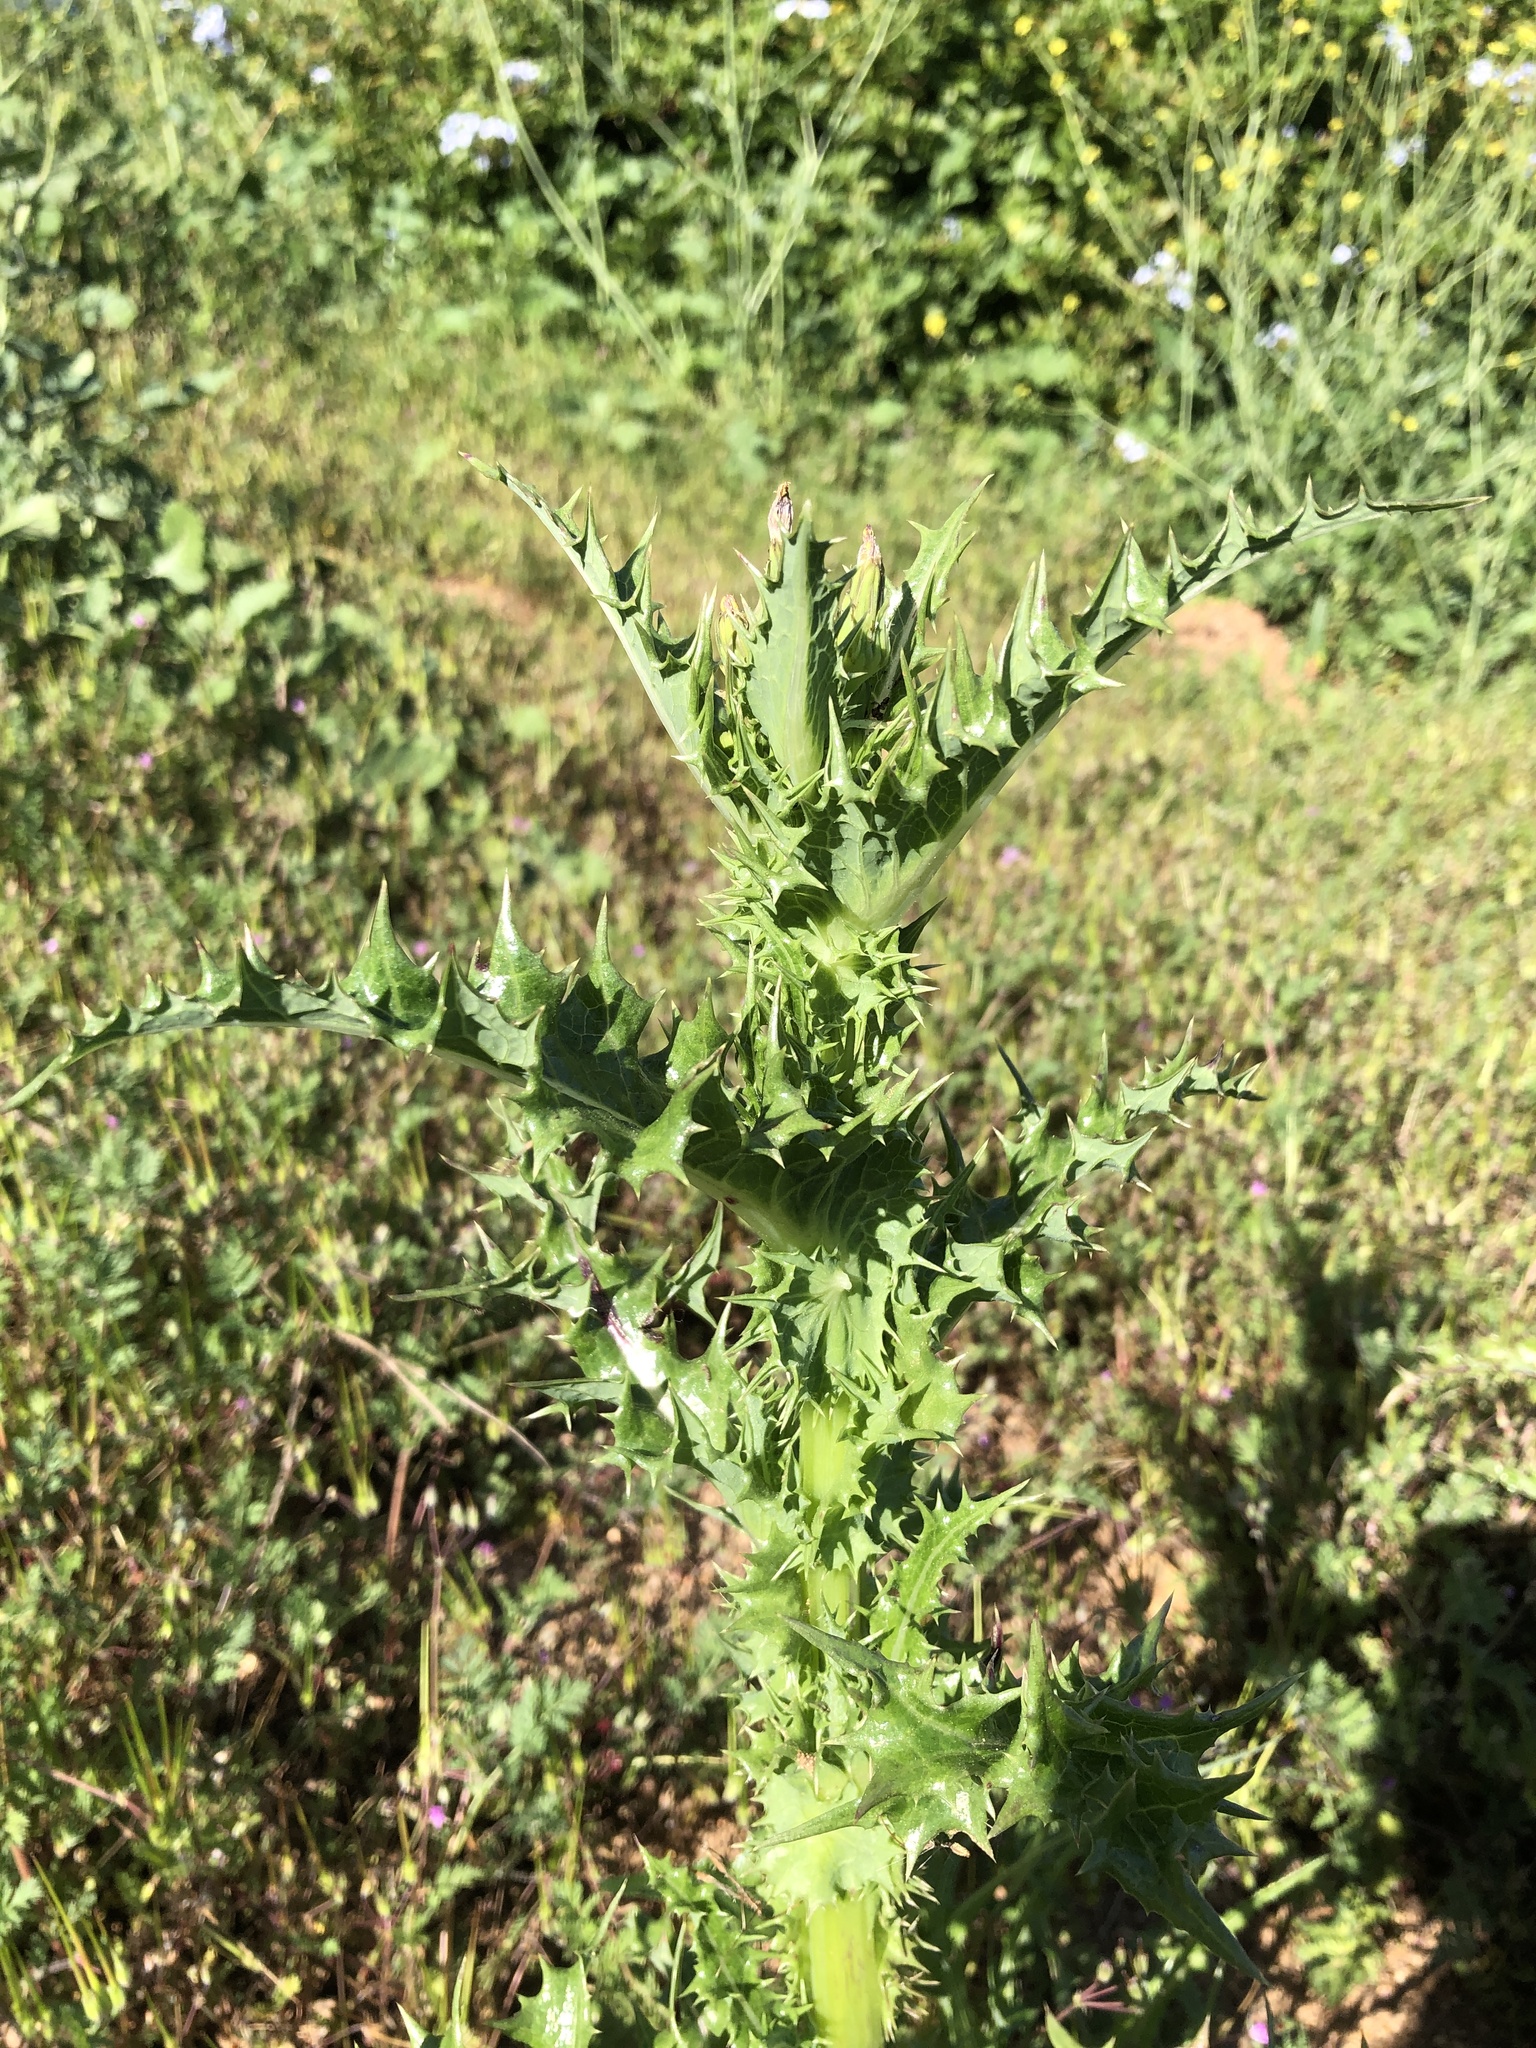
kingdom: Plantae
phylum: Tracheophyta
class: Magnoliopsida
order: Asterales
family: Asteraceae
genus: Sonchus
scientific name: Sonchus asper
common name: Prickly sow-thistle
